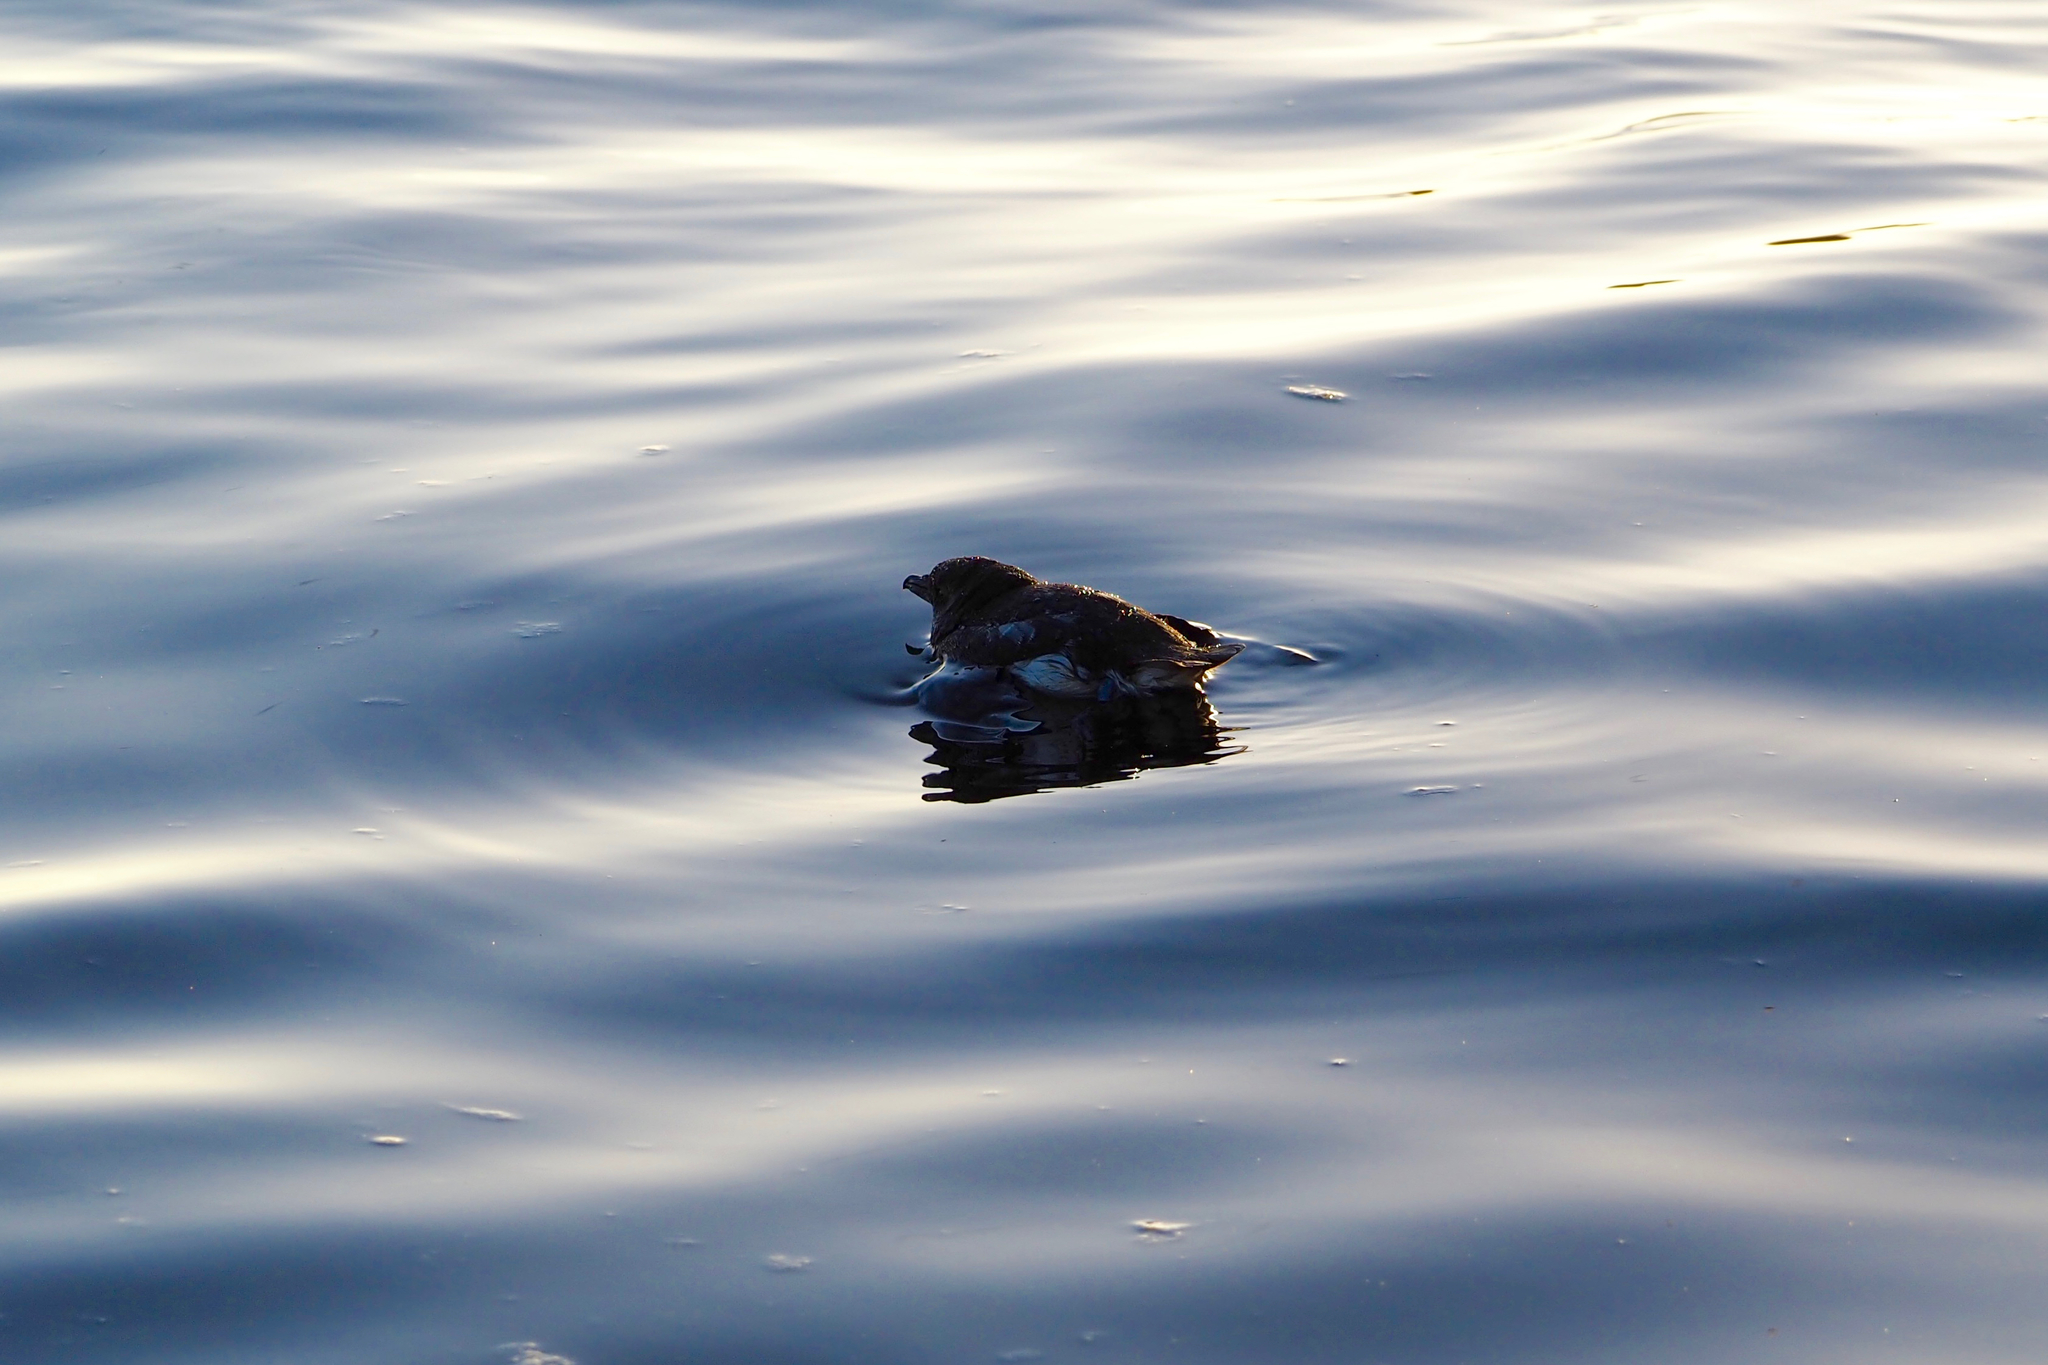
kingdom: Animalia
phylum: Chordata
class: Aves
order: Procellariiformes
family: Pelecanoididae
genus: Pelecanoides
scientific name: Pelecanoides
